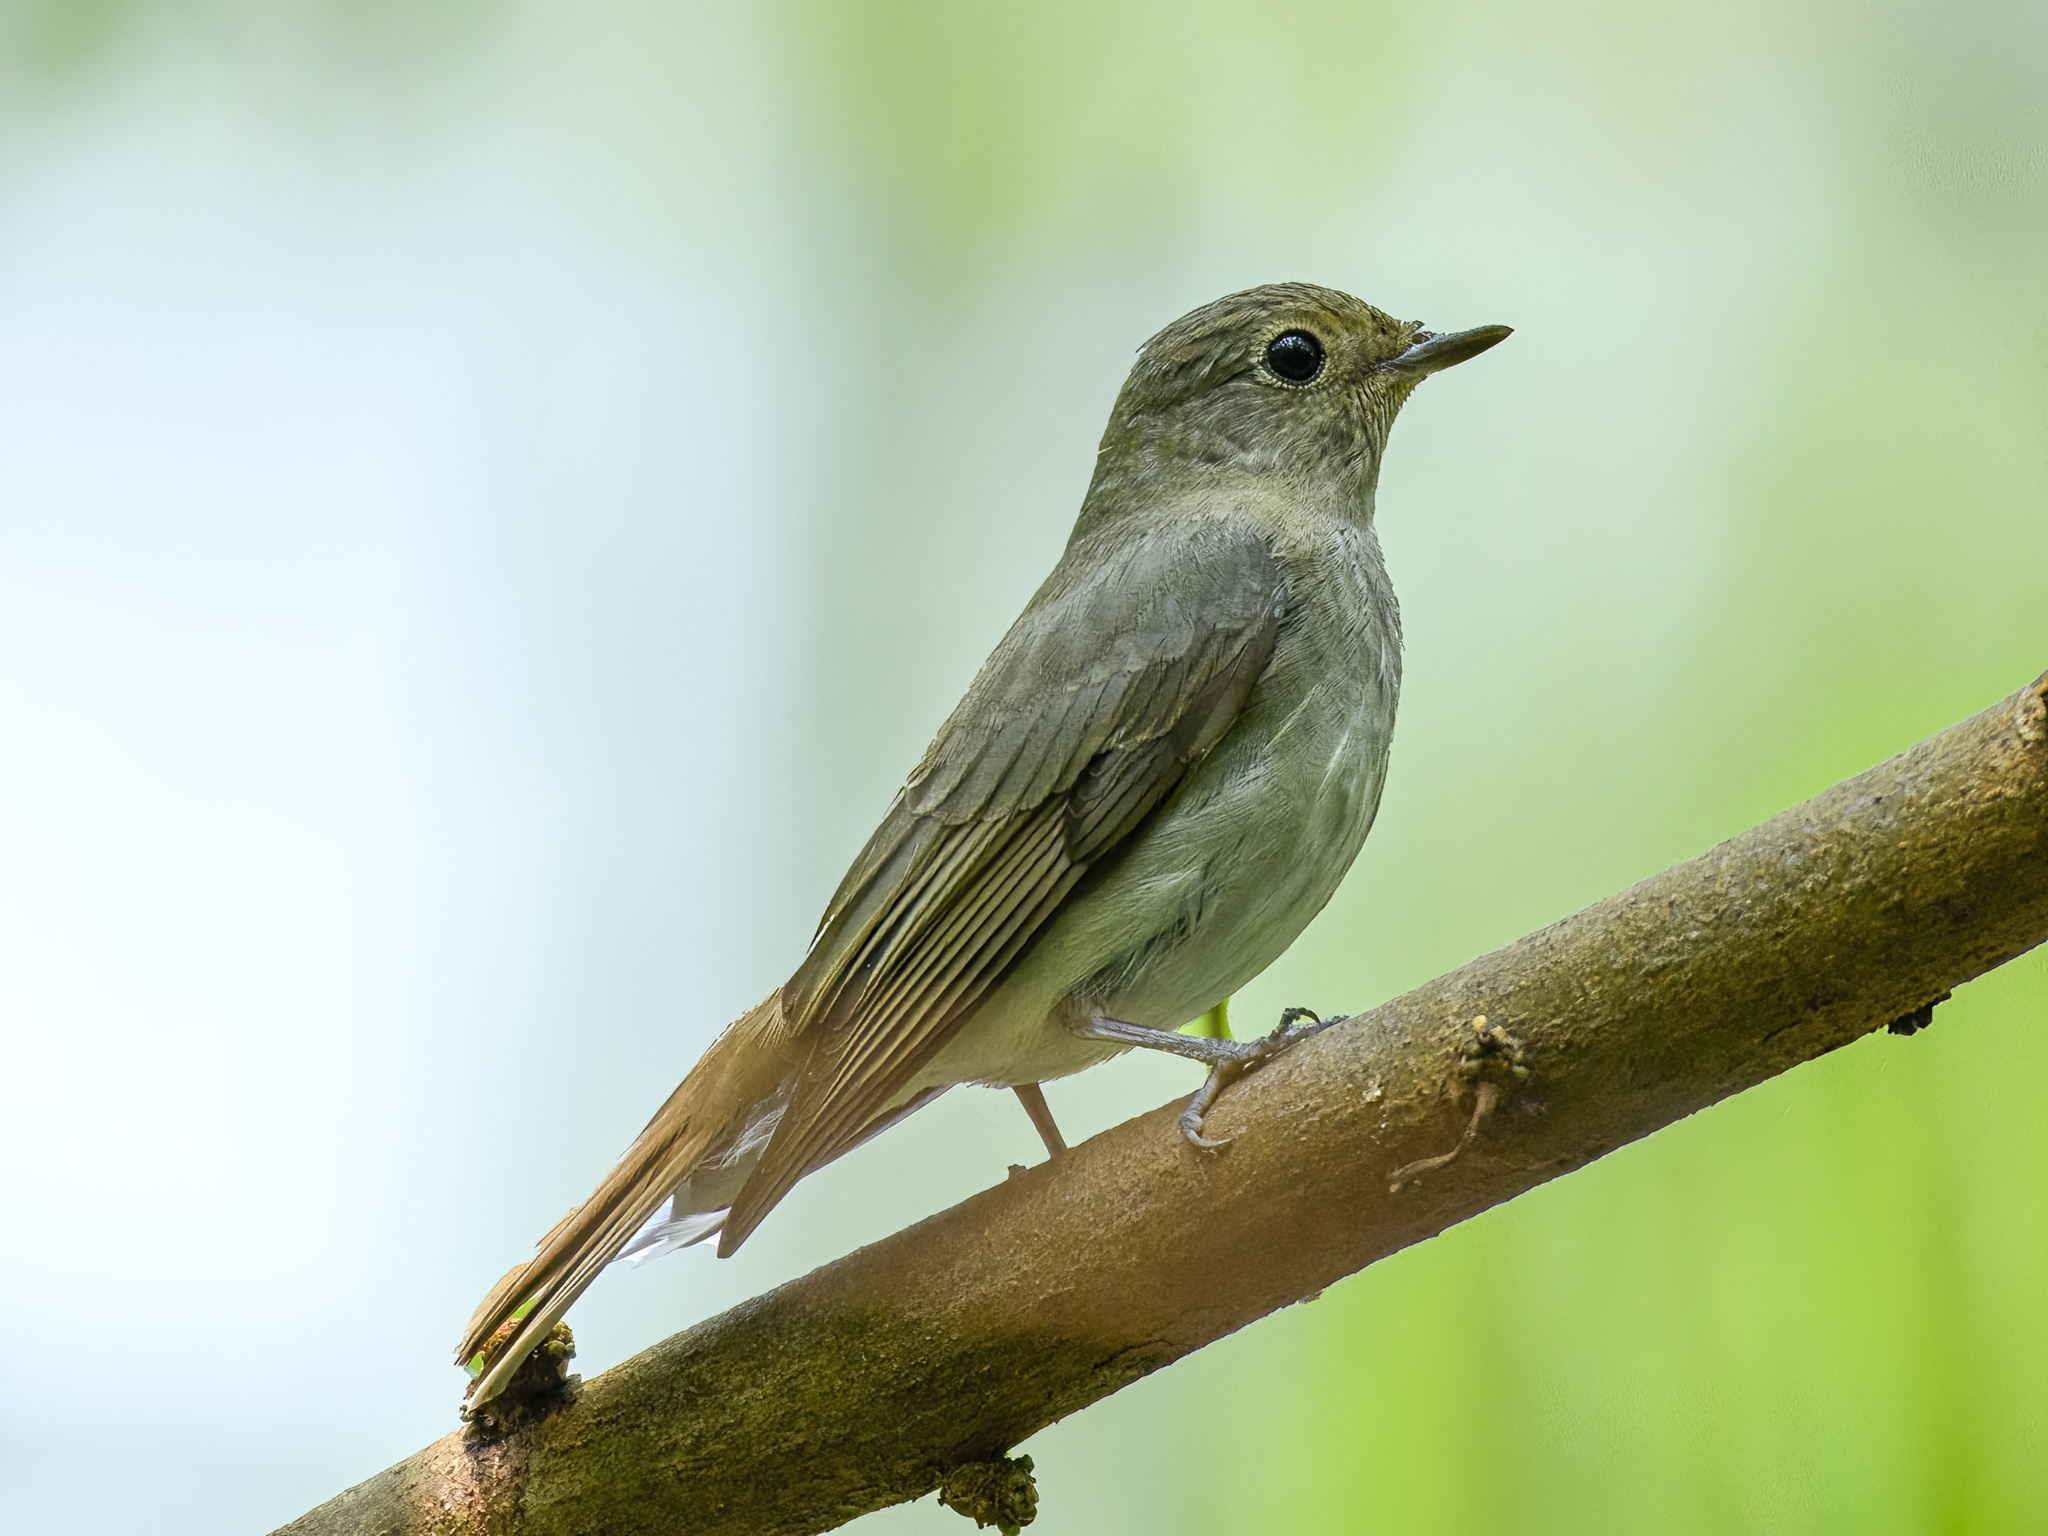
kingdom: Animalia
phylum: Chordata
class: Aves
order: Passeriformes
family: Muscicapidae
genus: Cyanoptila
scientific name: Cyanoptila cyanomelana
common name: Blue-and-white flycatcher
